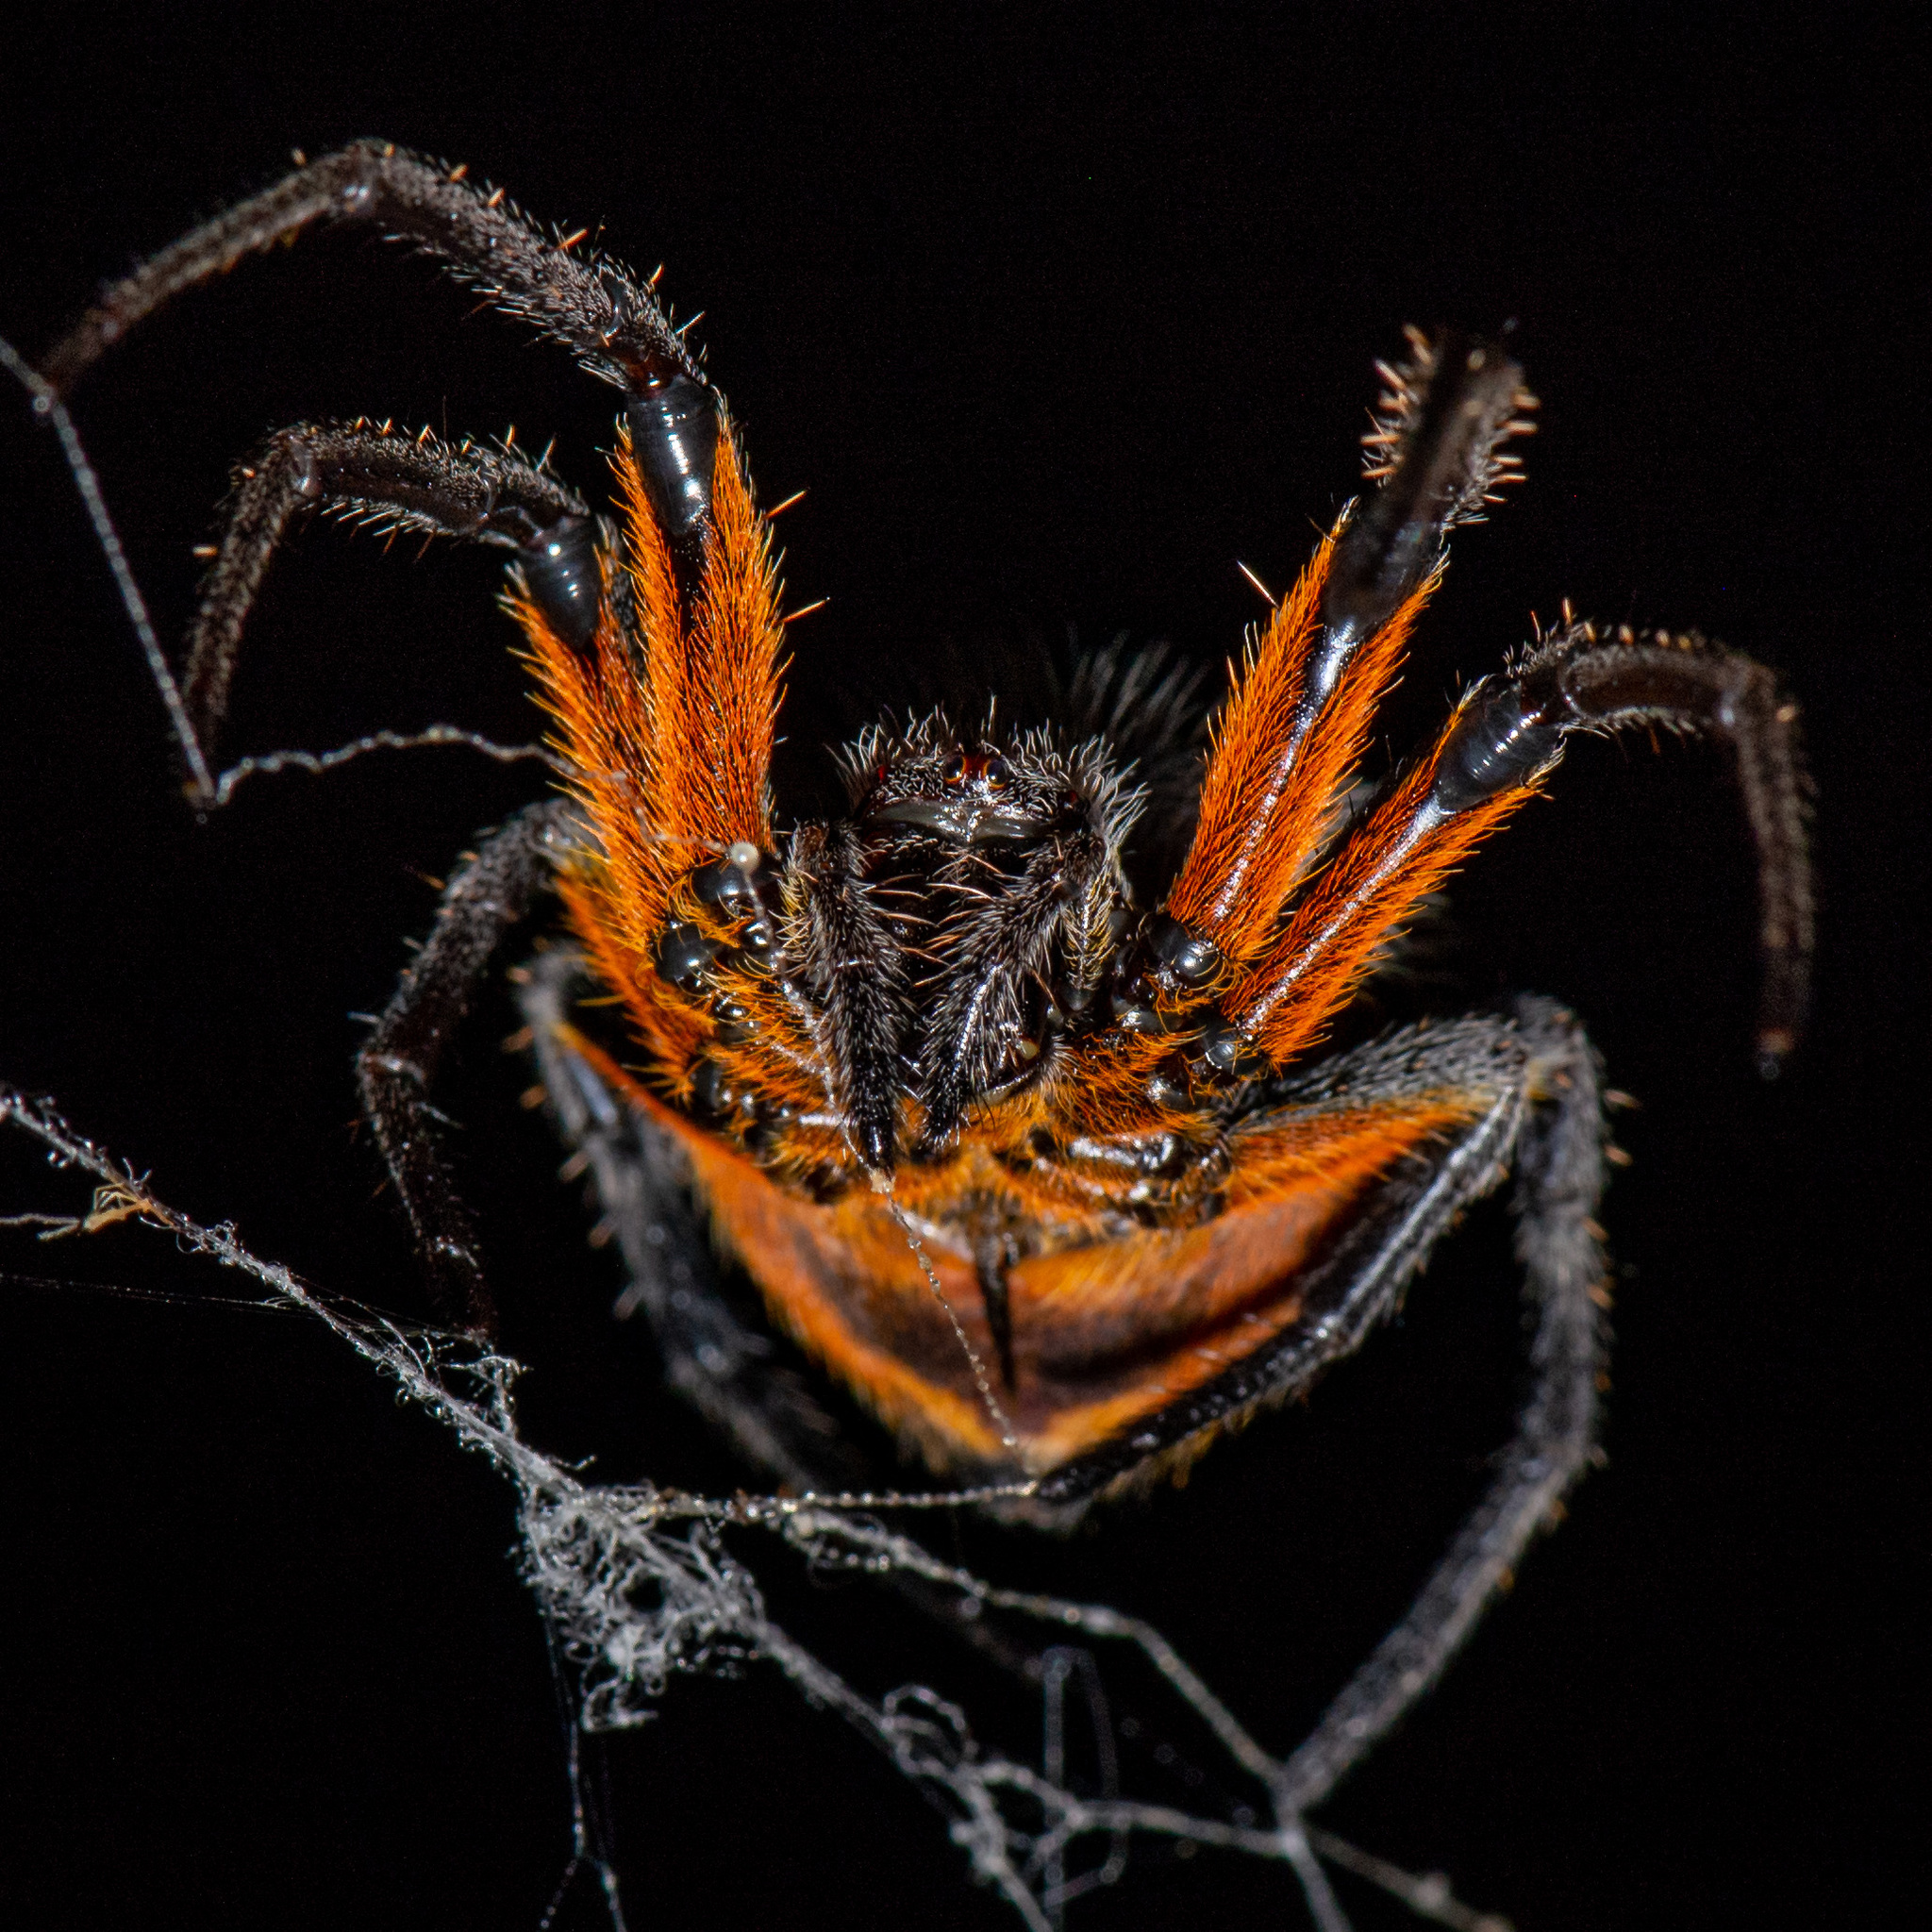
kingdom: Animalia
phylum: Arthropoda
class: Arachnida
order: Araneae
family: Araneidae
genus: Eriophora
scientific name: Eriophora fuliginea
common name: Orb weavers
